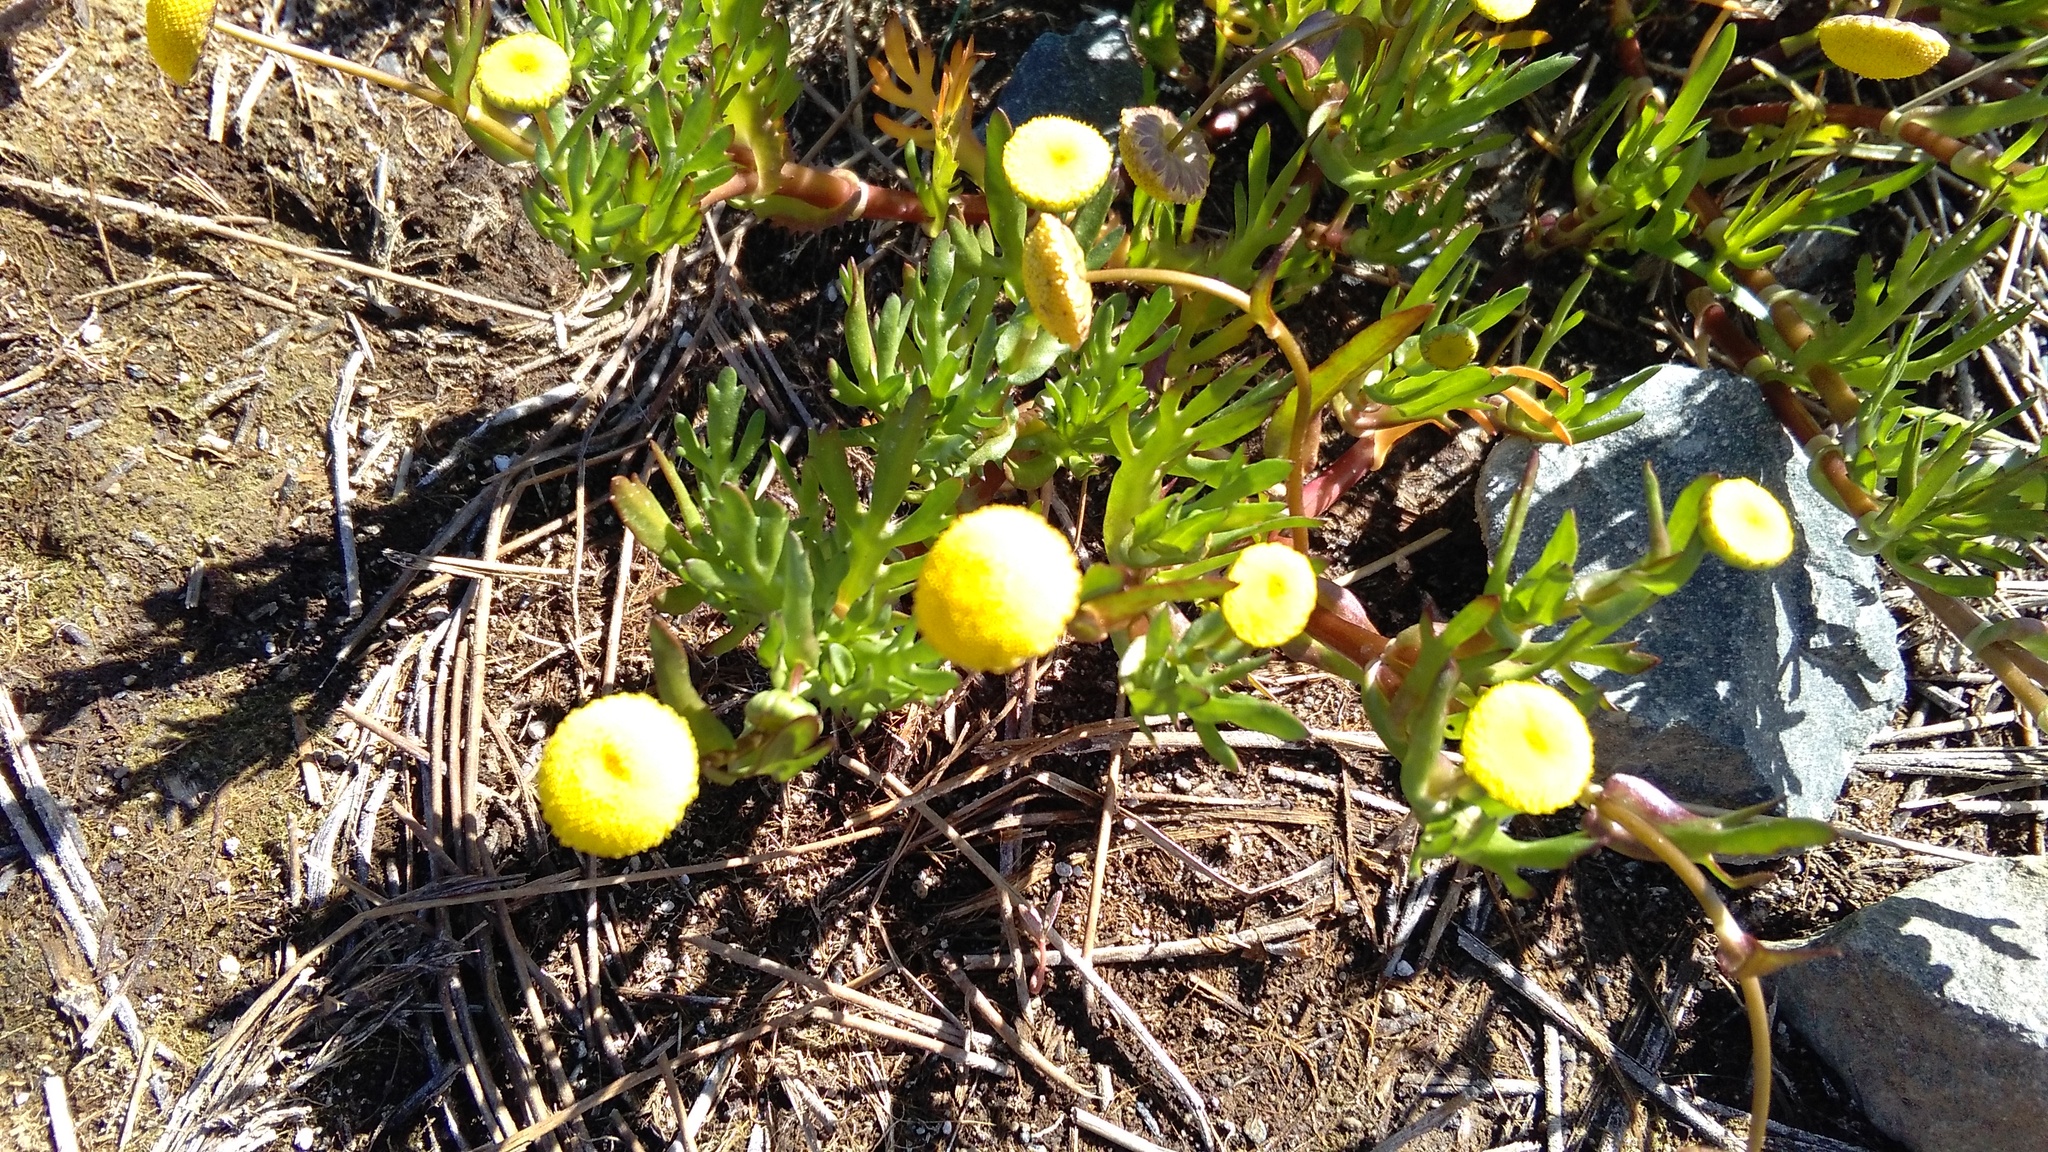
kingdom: Plantae
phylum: Tracheophyta
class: Magnoliopsida
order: Asterales
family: Asteraceae
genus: Cotula
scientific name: Cotula coronopifolia
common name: Buttonweed
